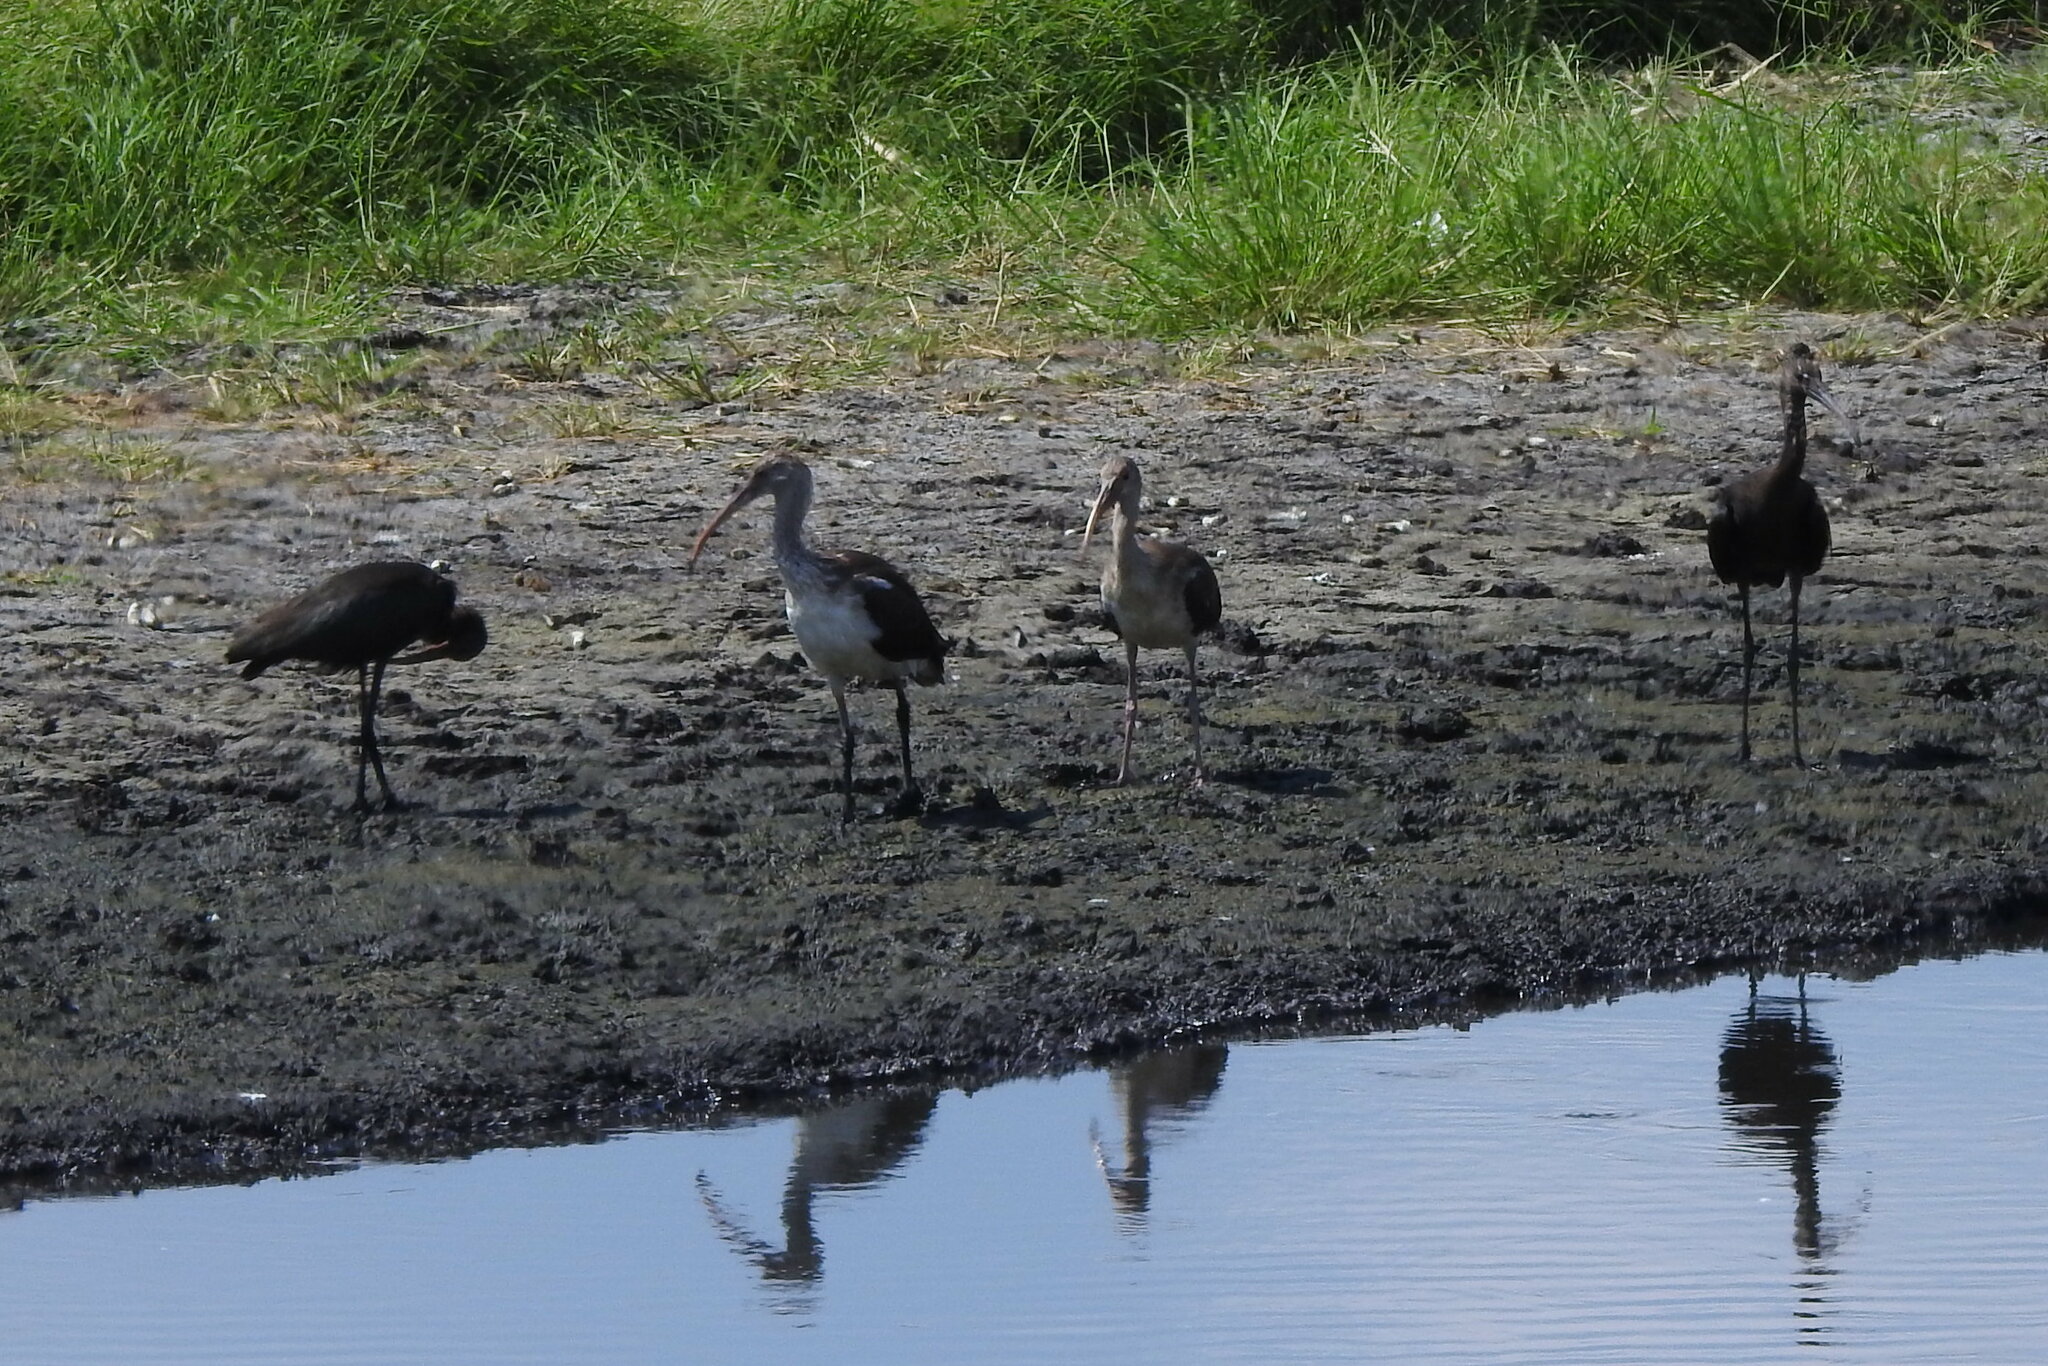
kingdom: Animalia
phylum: Chordata
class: Aves
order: Pelecaniformes
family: Threskiornithidae
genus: Plegadis
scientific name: Plegadis chihi
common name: White-faced ibis
